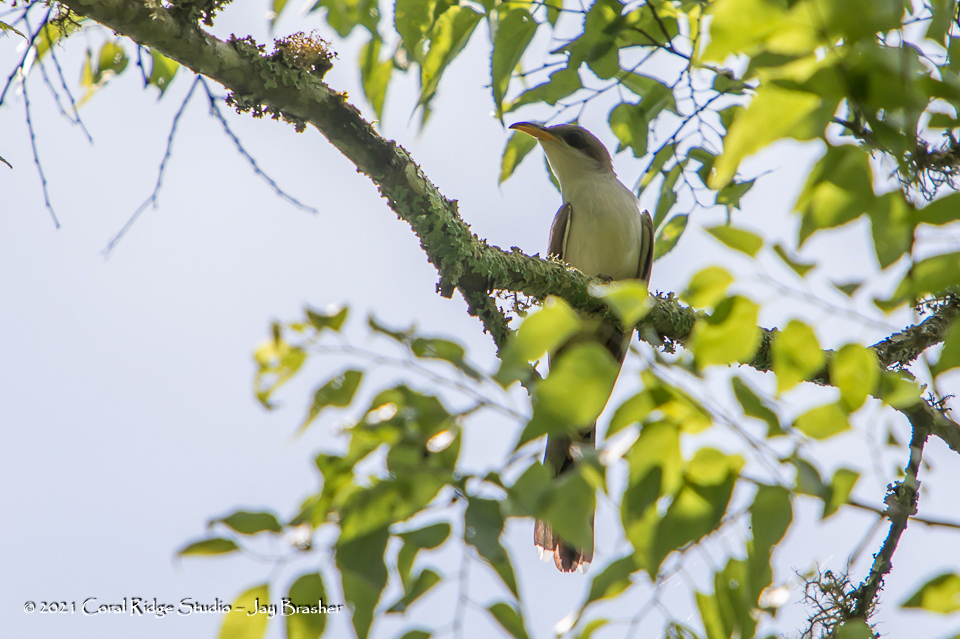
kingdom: Animalia
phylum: Chordata
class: Aves
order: Cuculiformes
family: Cuculidae
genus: Coccyzus
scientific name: Coccyzus americanus
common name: Yellow-billed cuckoo
